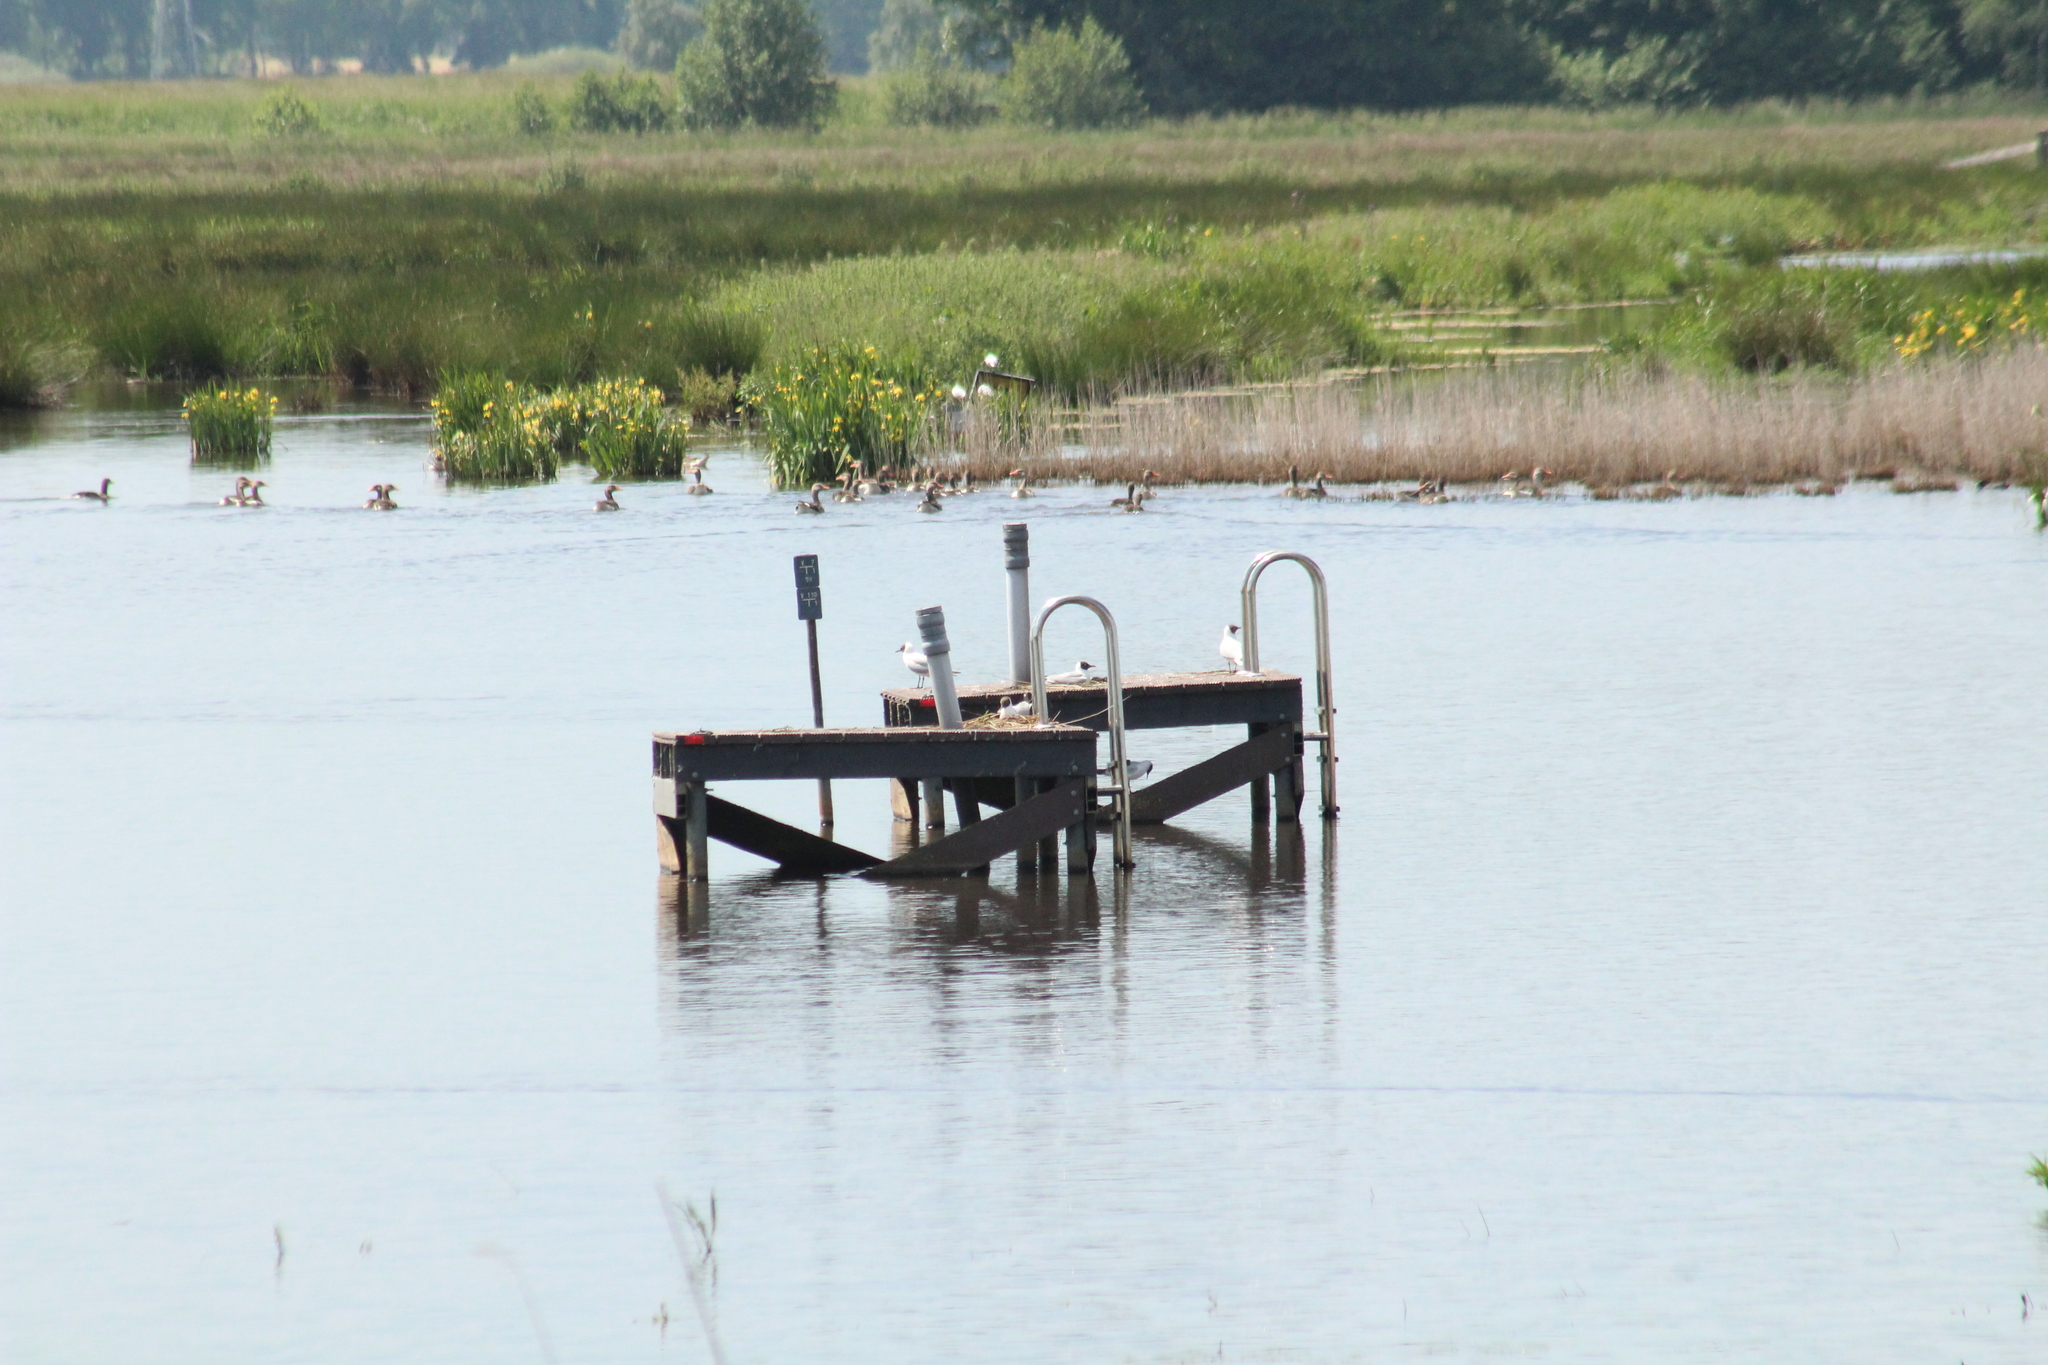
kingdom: Animalia
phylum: Chordata
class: Aves
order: Charadriiformes
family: Laridae
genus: Chroicocephalus
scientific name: Chroicocephalus ridibundus
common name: Black-headed gull
